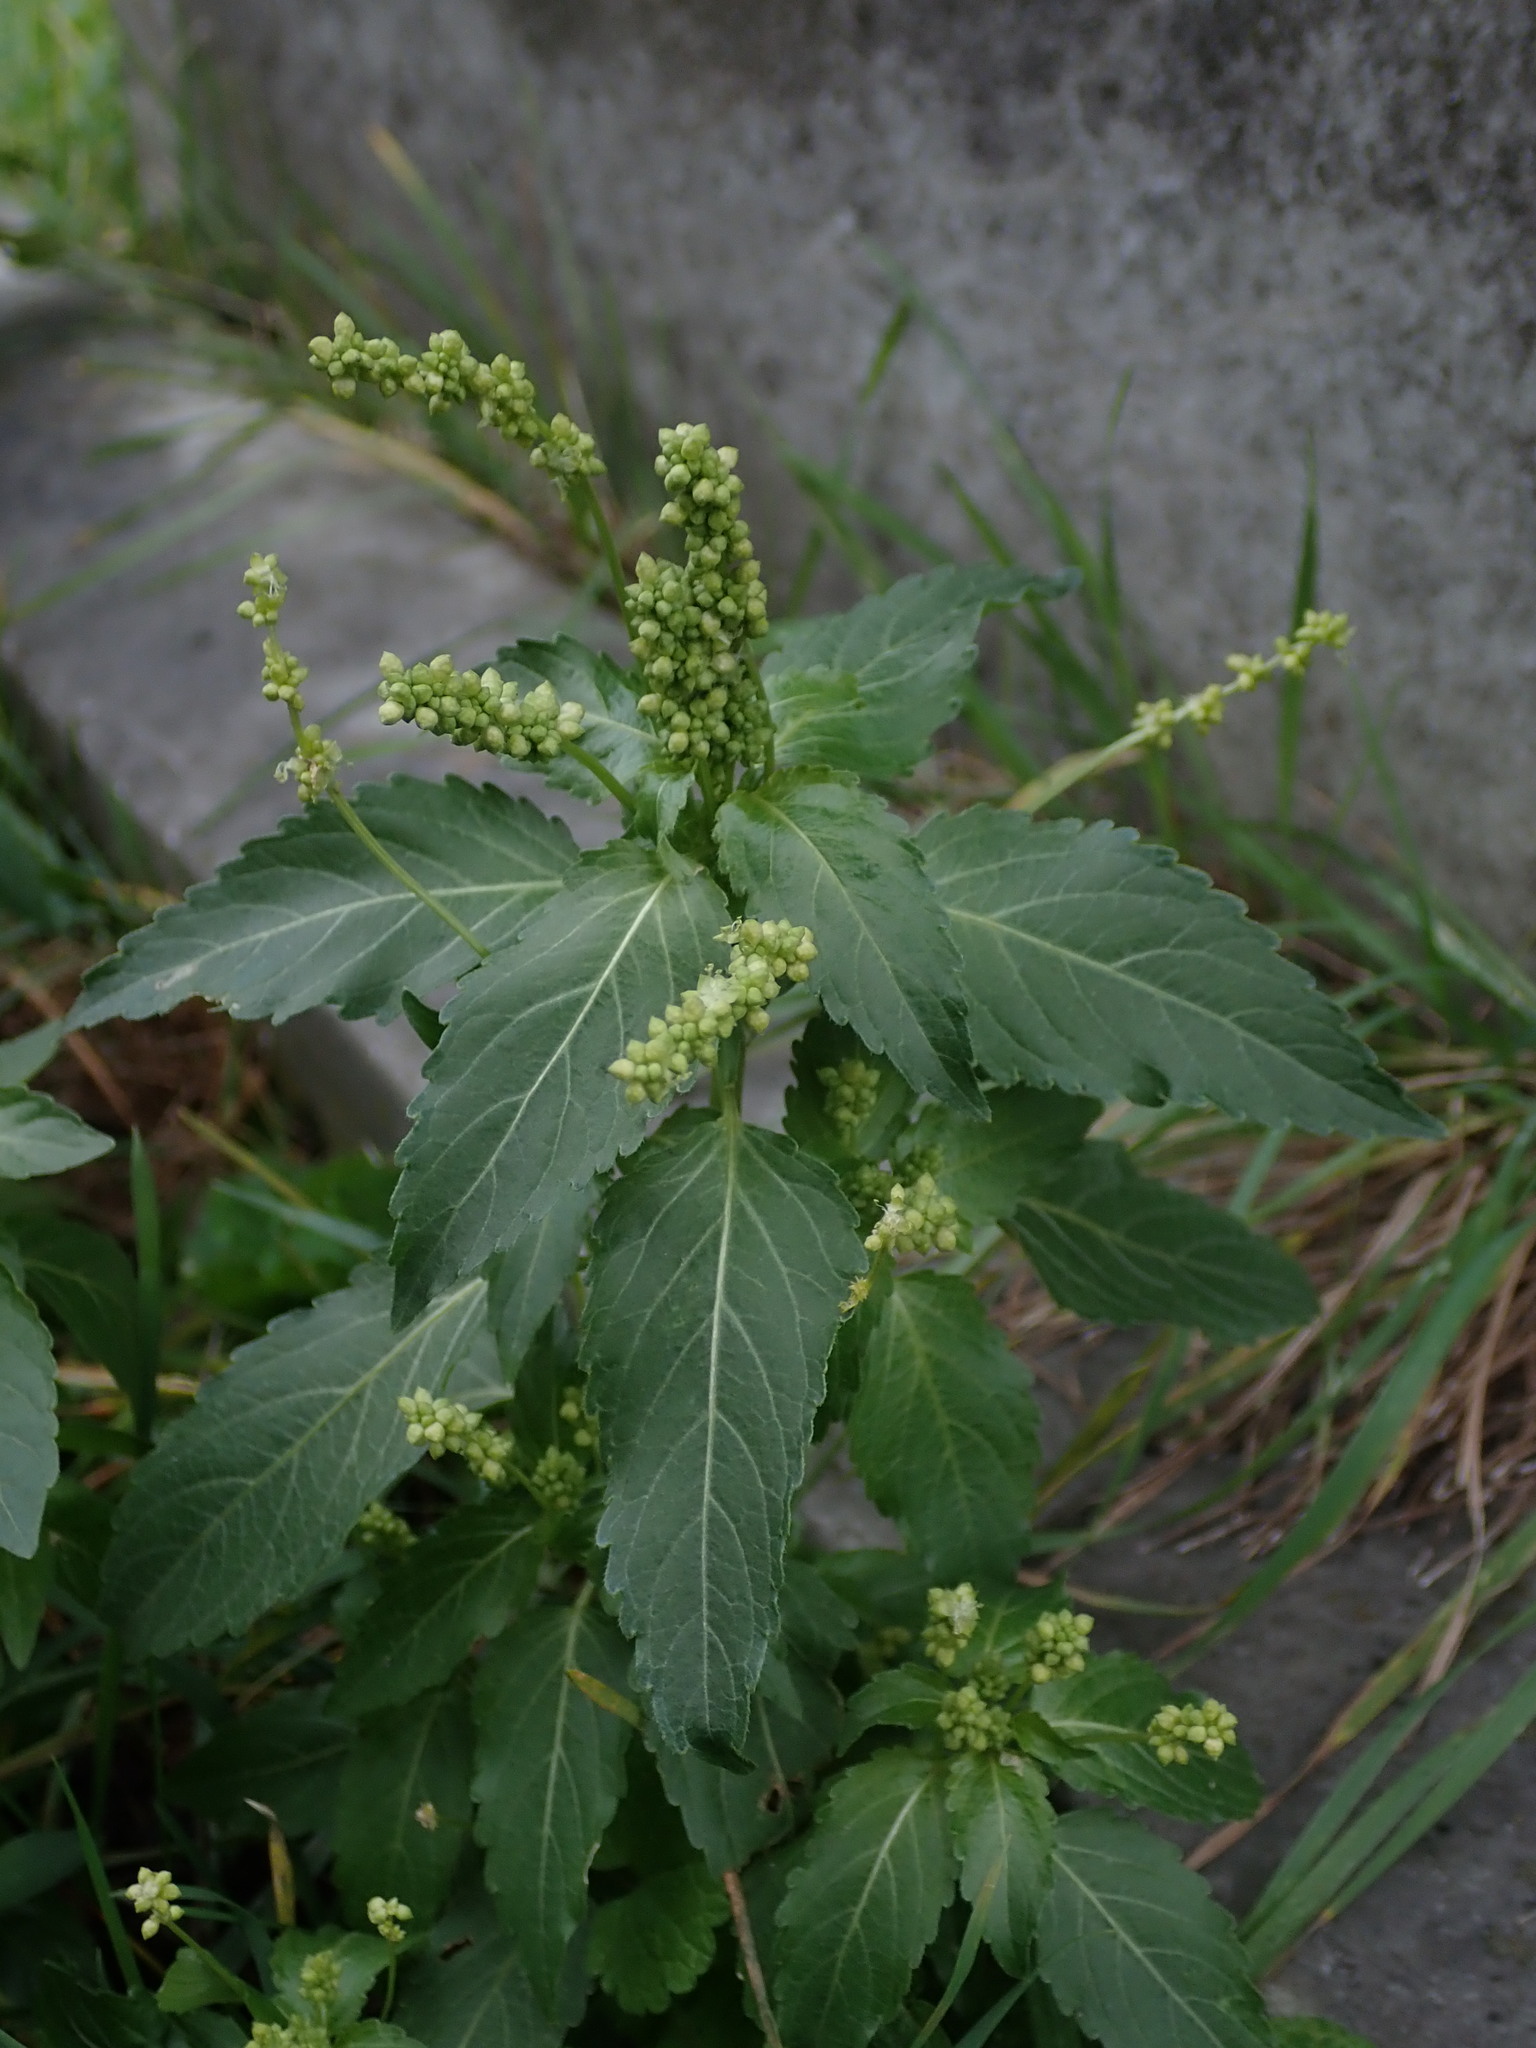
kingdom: Plantae
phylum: Tracheophyta
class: Magnoliopsida
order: Malpighiales
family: Euphorbiaceae
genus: Mercurialis
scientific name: Mercurialis annua
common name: Annual mercury
